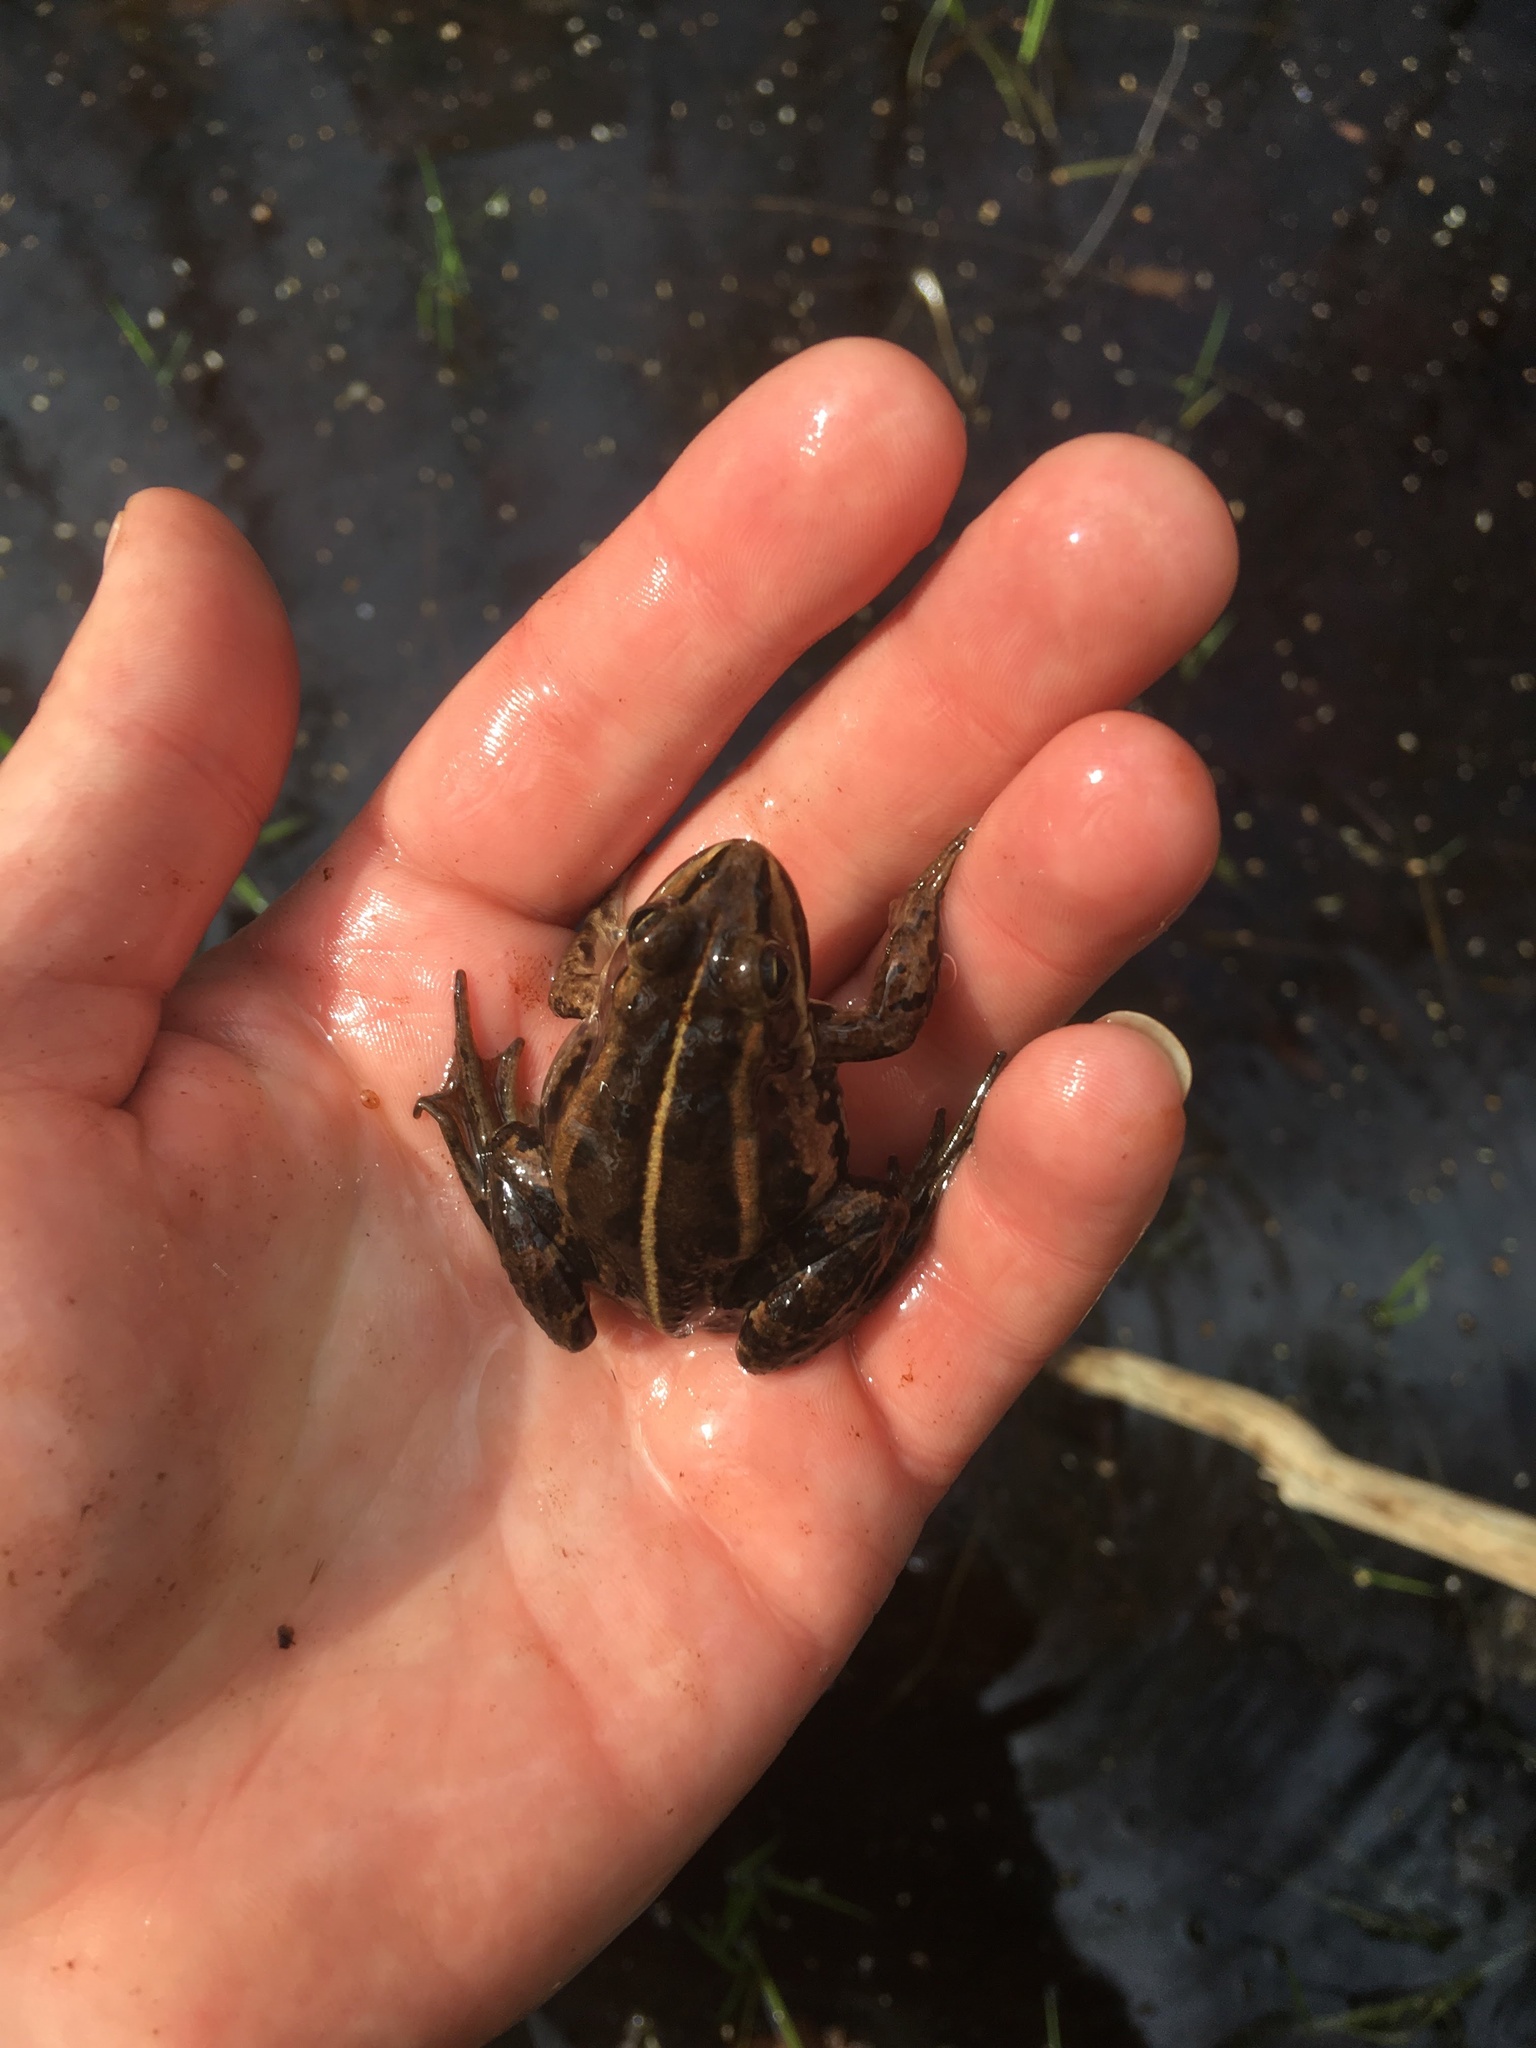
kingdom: Animalia
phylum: Chordata
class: Amphibia
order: Anura
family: Ranidae
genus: Pelophylax
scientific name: Pelophylax lessonae
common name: Pool frog
